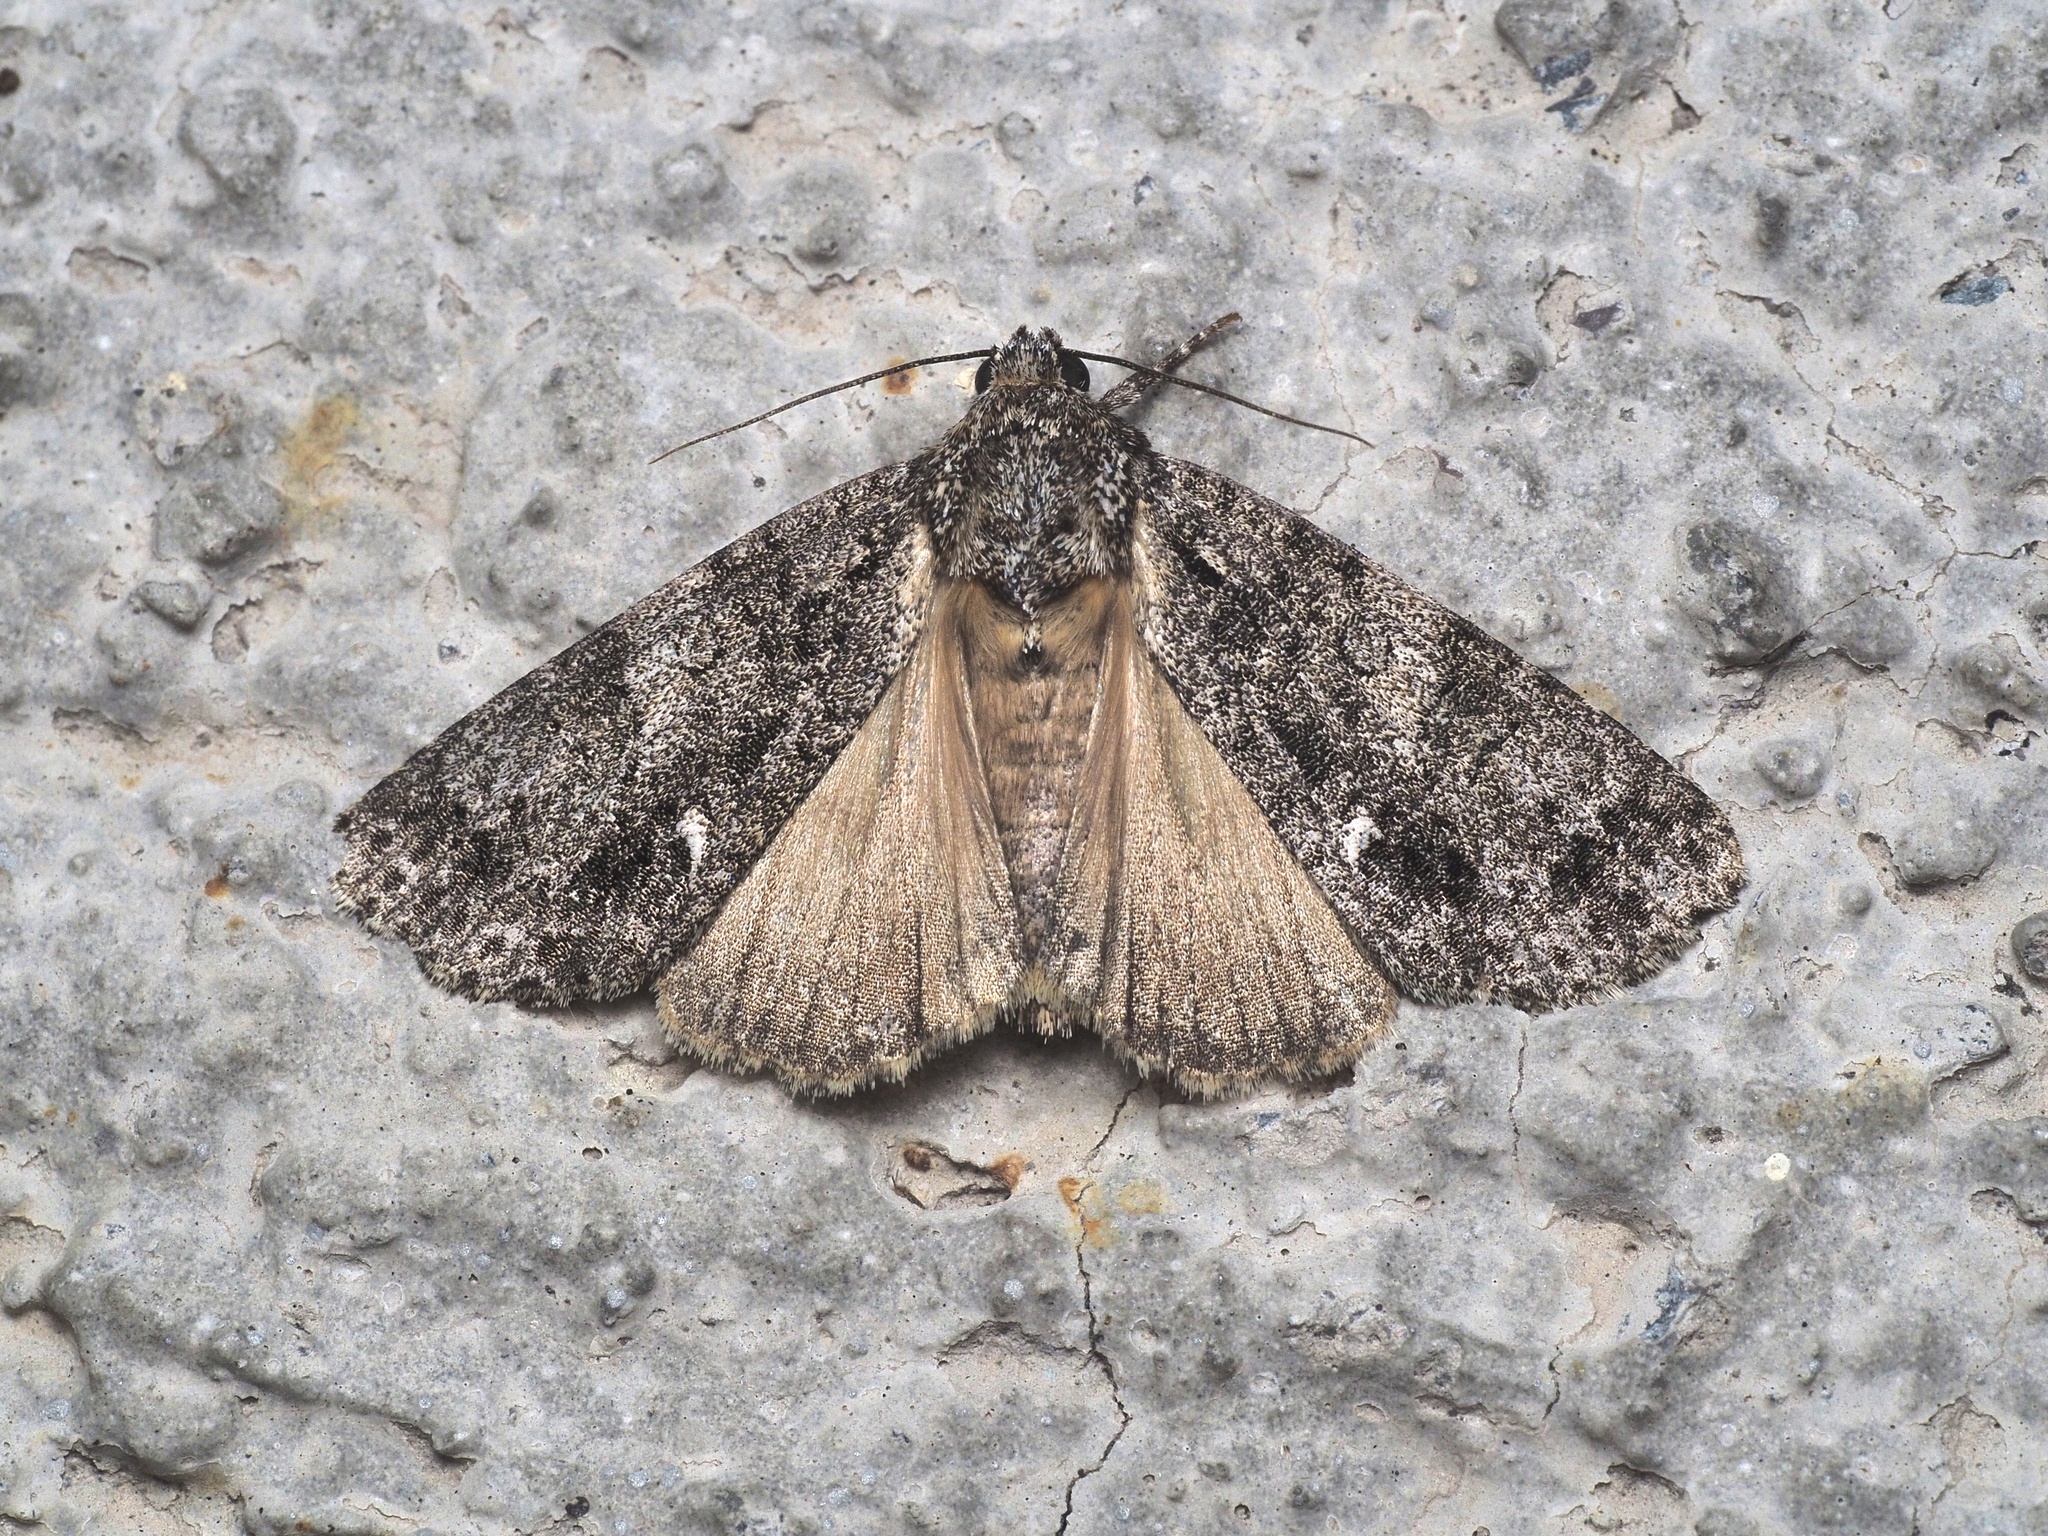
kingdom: Animalia
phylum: Arthropoda
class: Insecta
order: Lepidoptera
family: Noctuidae
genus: Acronicta
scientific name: Acronicta rumicis
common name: Knot grass
